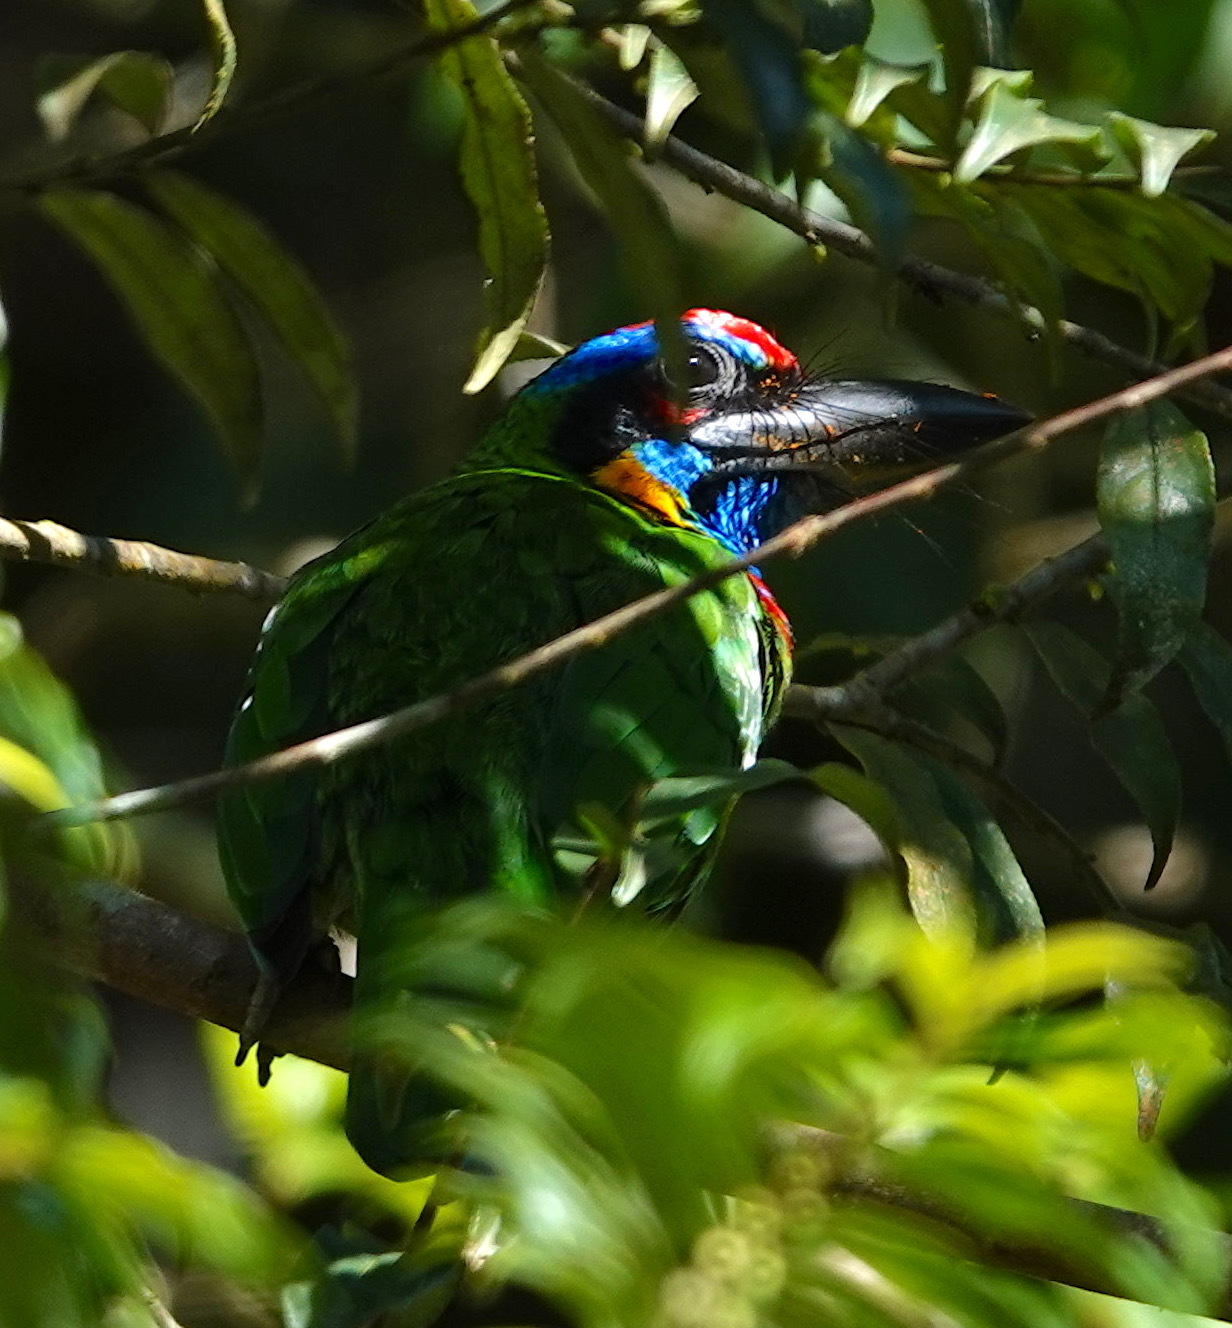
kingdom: Animalia
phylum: Chordata
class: Aves
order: Piciformes
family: Megalaimidae
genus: Psilopogon
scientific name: Psilopogon rafflesii
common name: Red-crowned barbet
